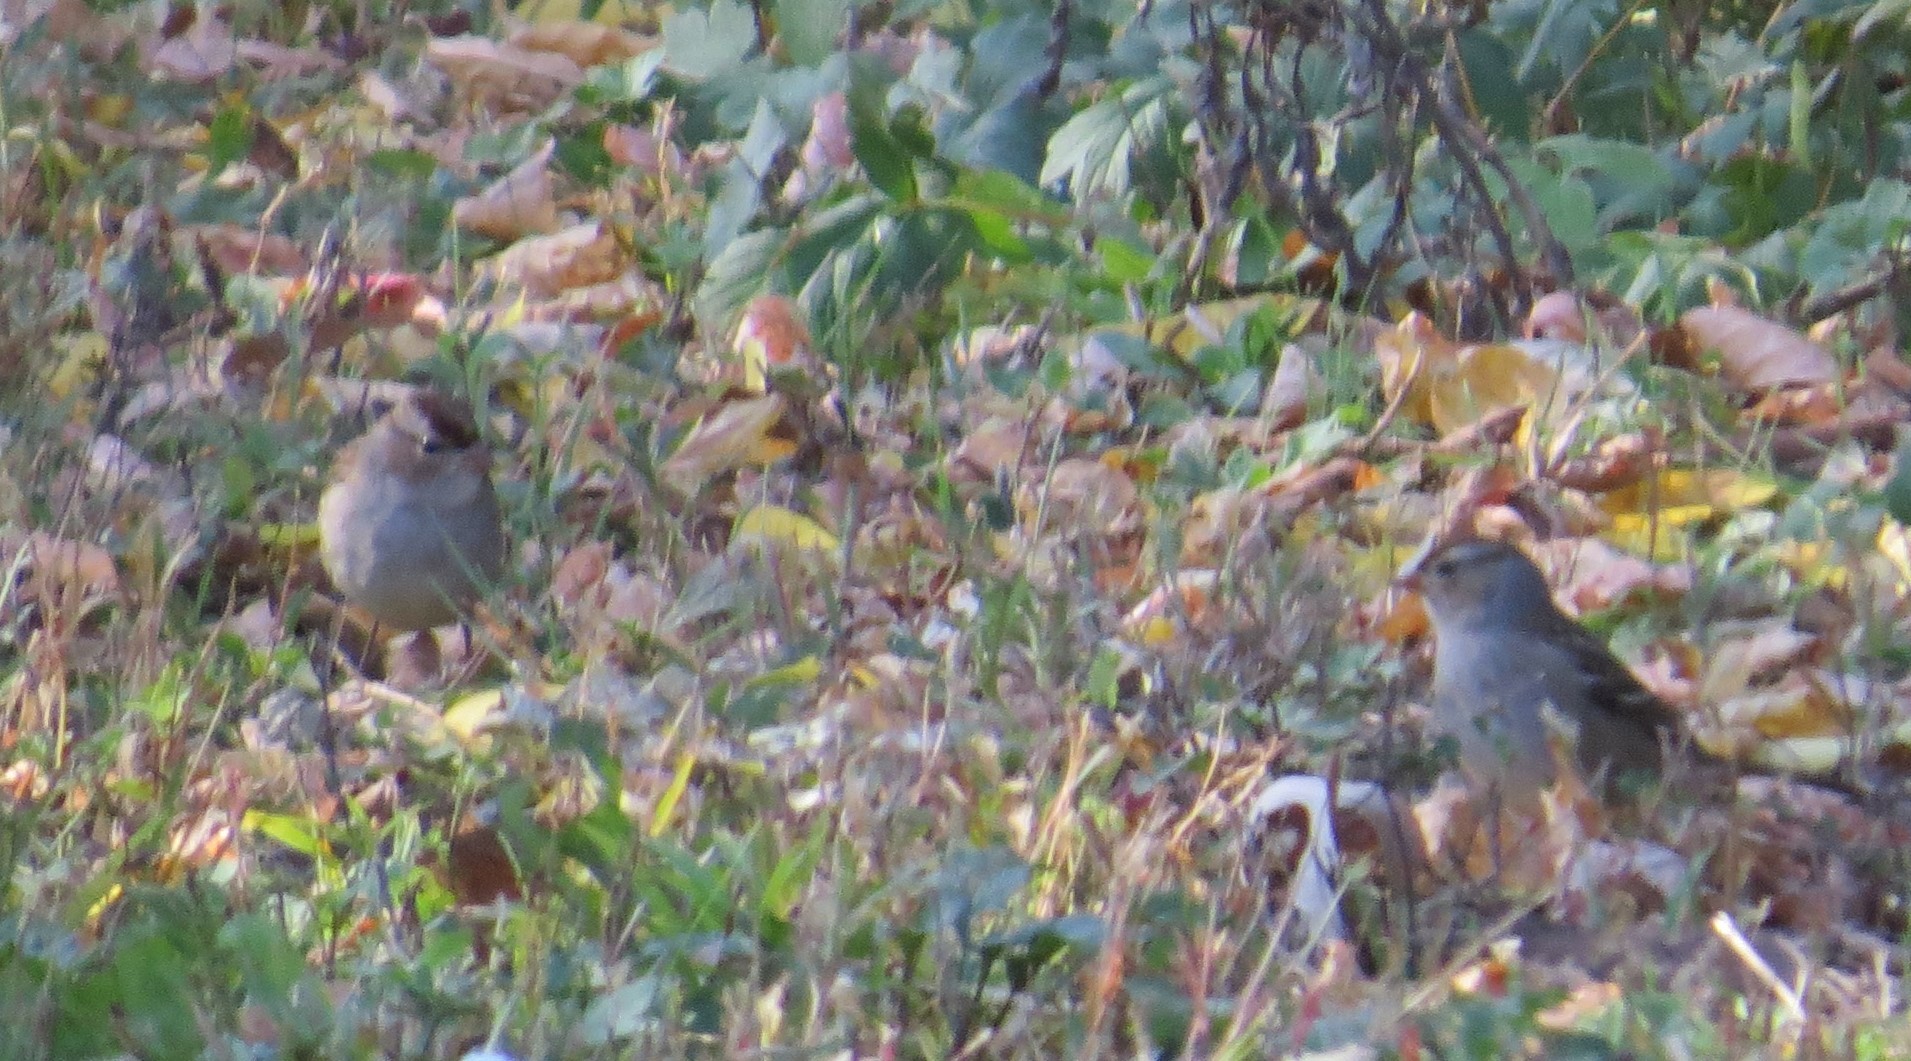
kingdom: Animalia
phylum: Chordata
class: Aves
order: Passeriformes
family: Passerellidae
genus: Zonotrichia
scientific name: Zonotrichia leucophrys
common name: White-crowned sparrow
